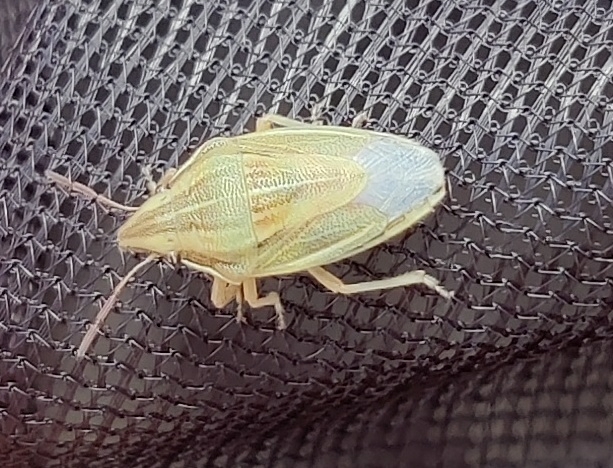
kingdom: Animalia
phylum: Arthropoda
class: Insecta
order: Hemiptera
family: Pentatomidae
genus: Aelia
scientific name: Aelia acuminata
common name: Bishop's mitre
